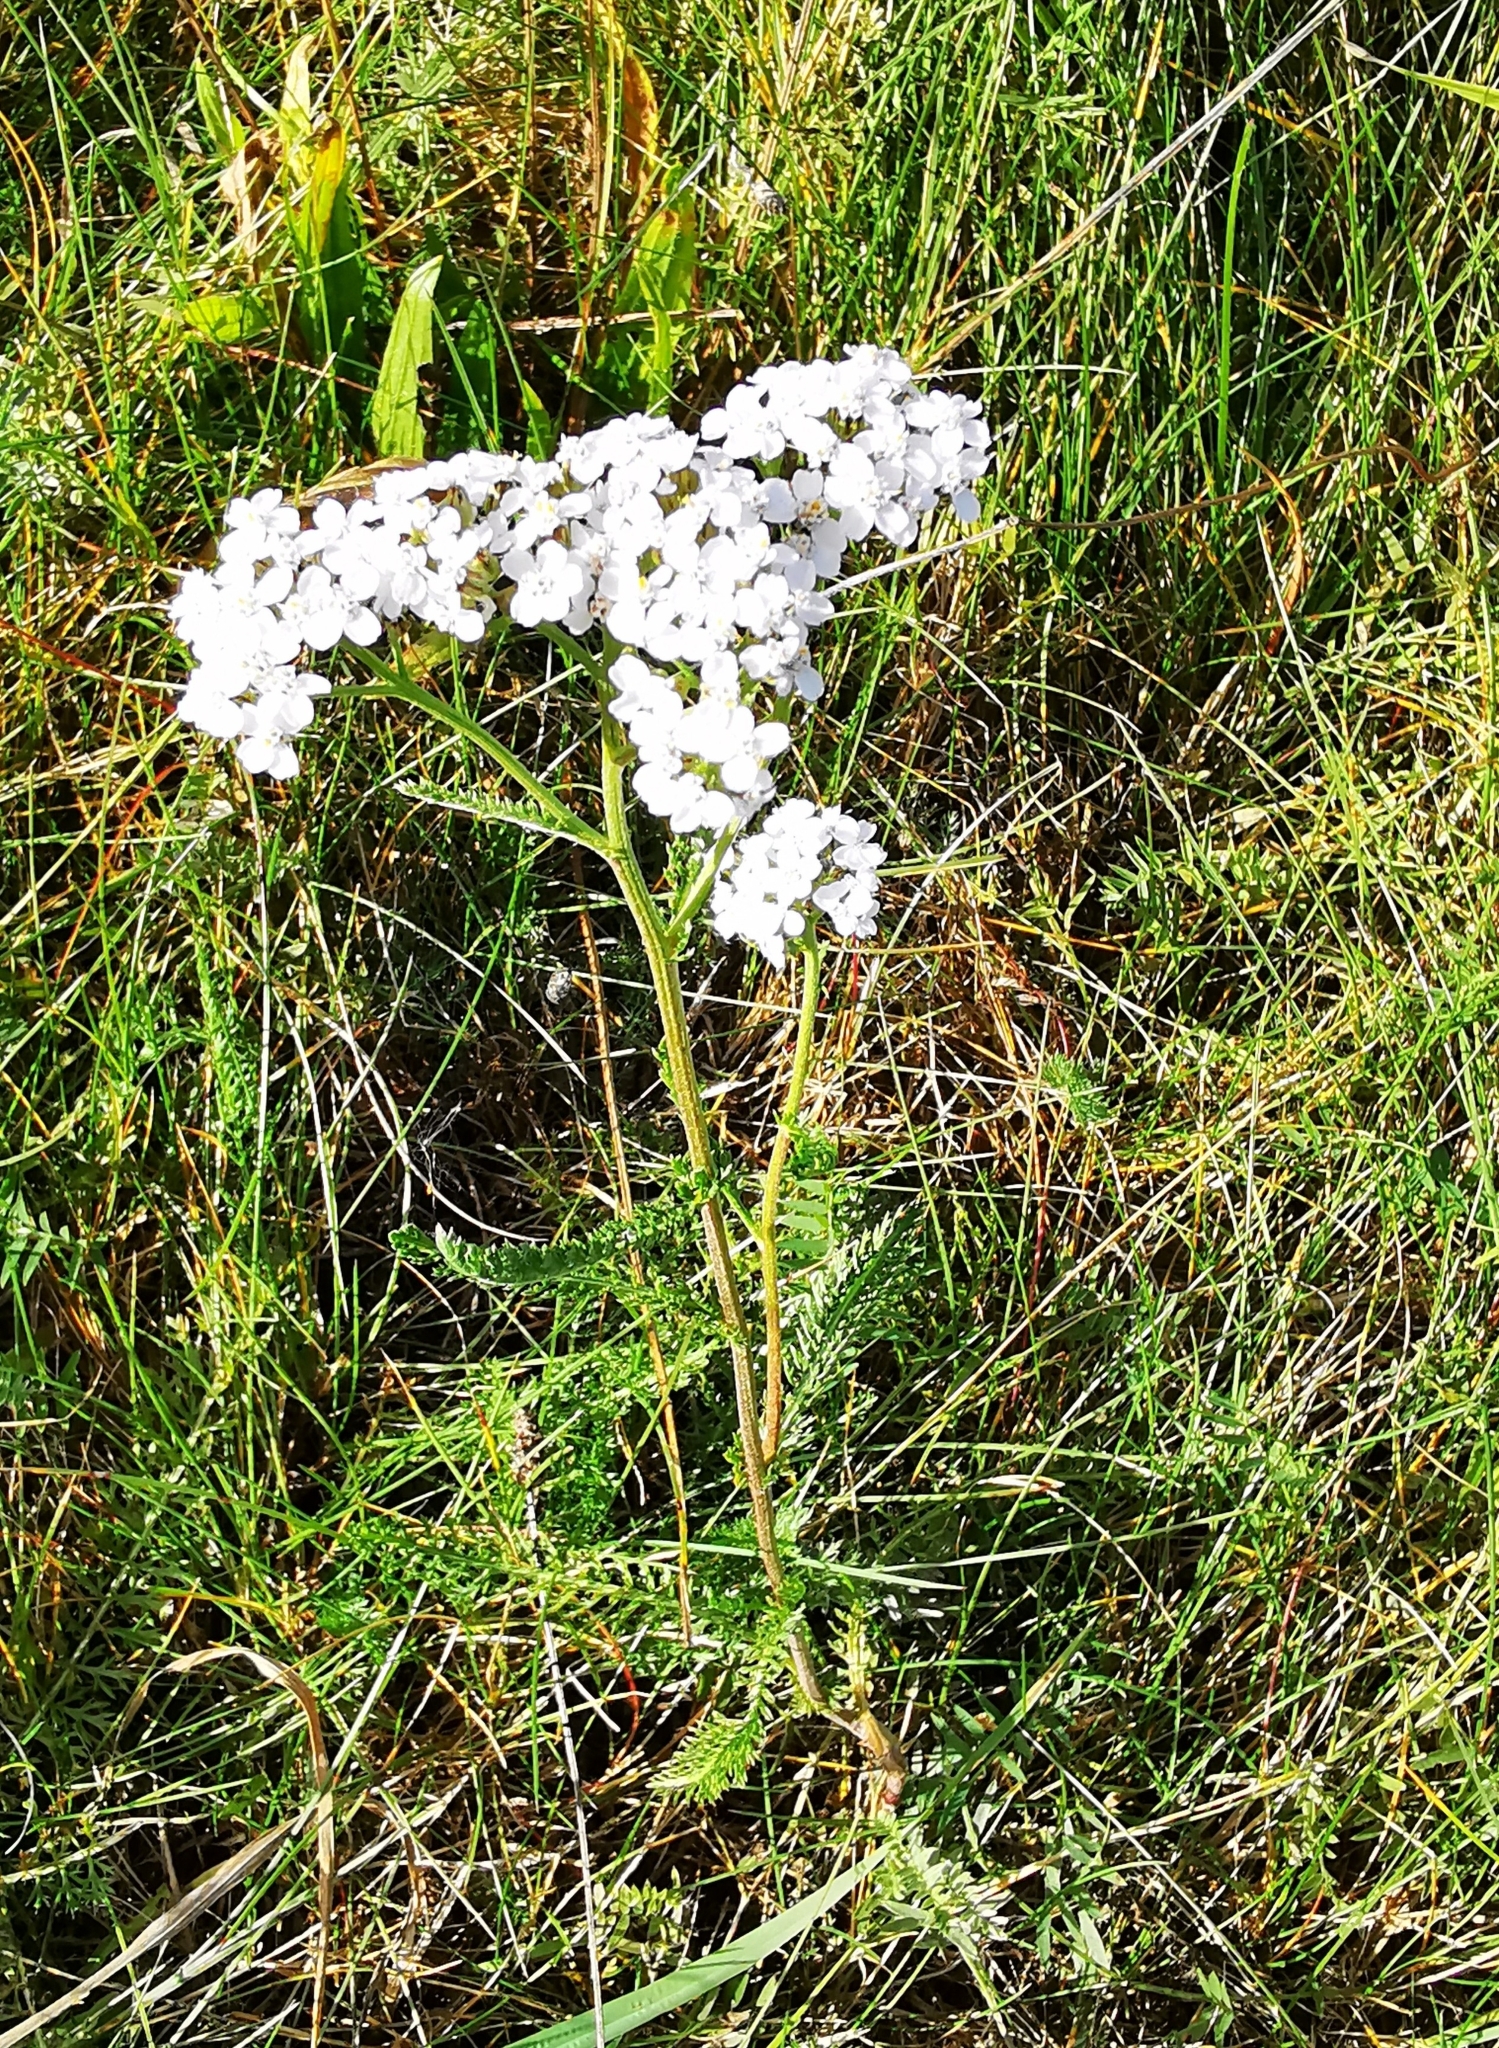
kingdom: Plantae
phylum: Tracheophyta
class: Magnoliopsida
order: Asterales
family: Asteraceae
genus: Achillea
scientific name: Achillea millefolium
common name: Yarrow
